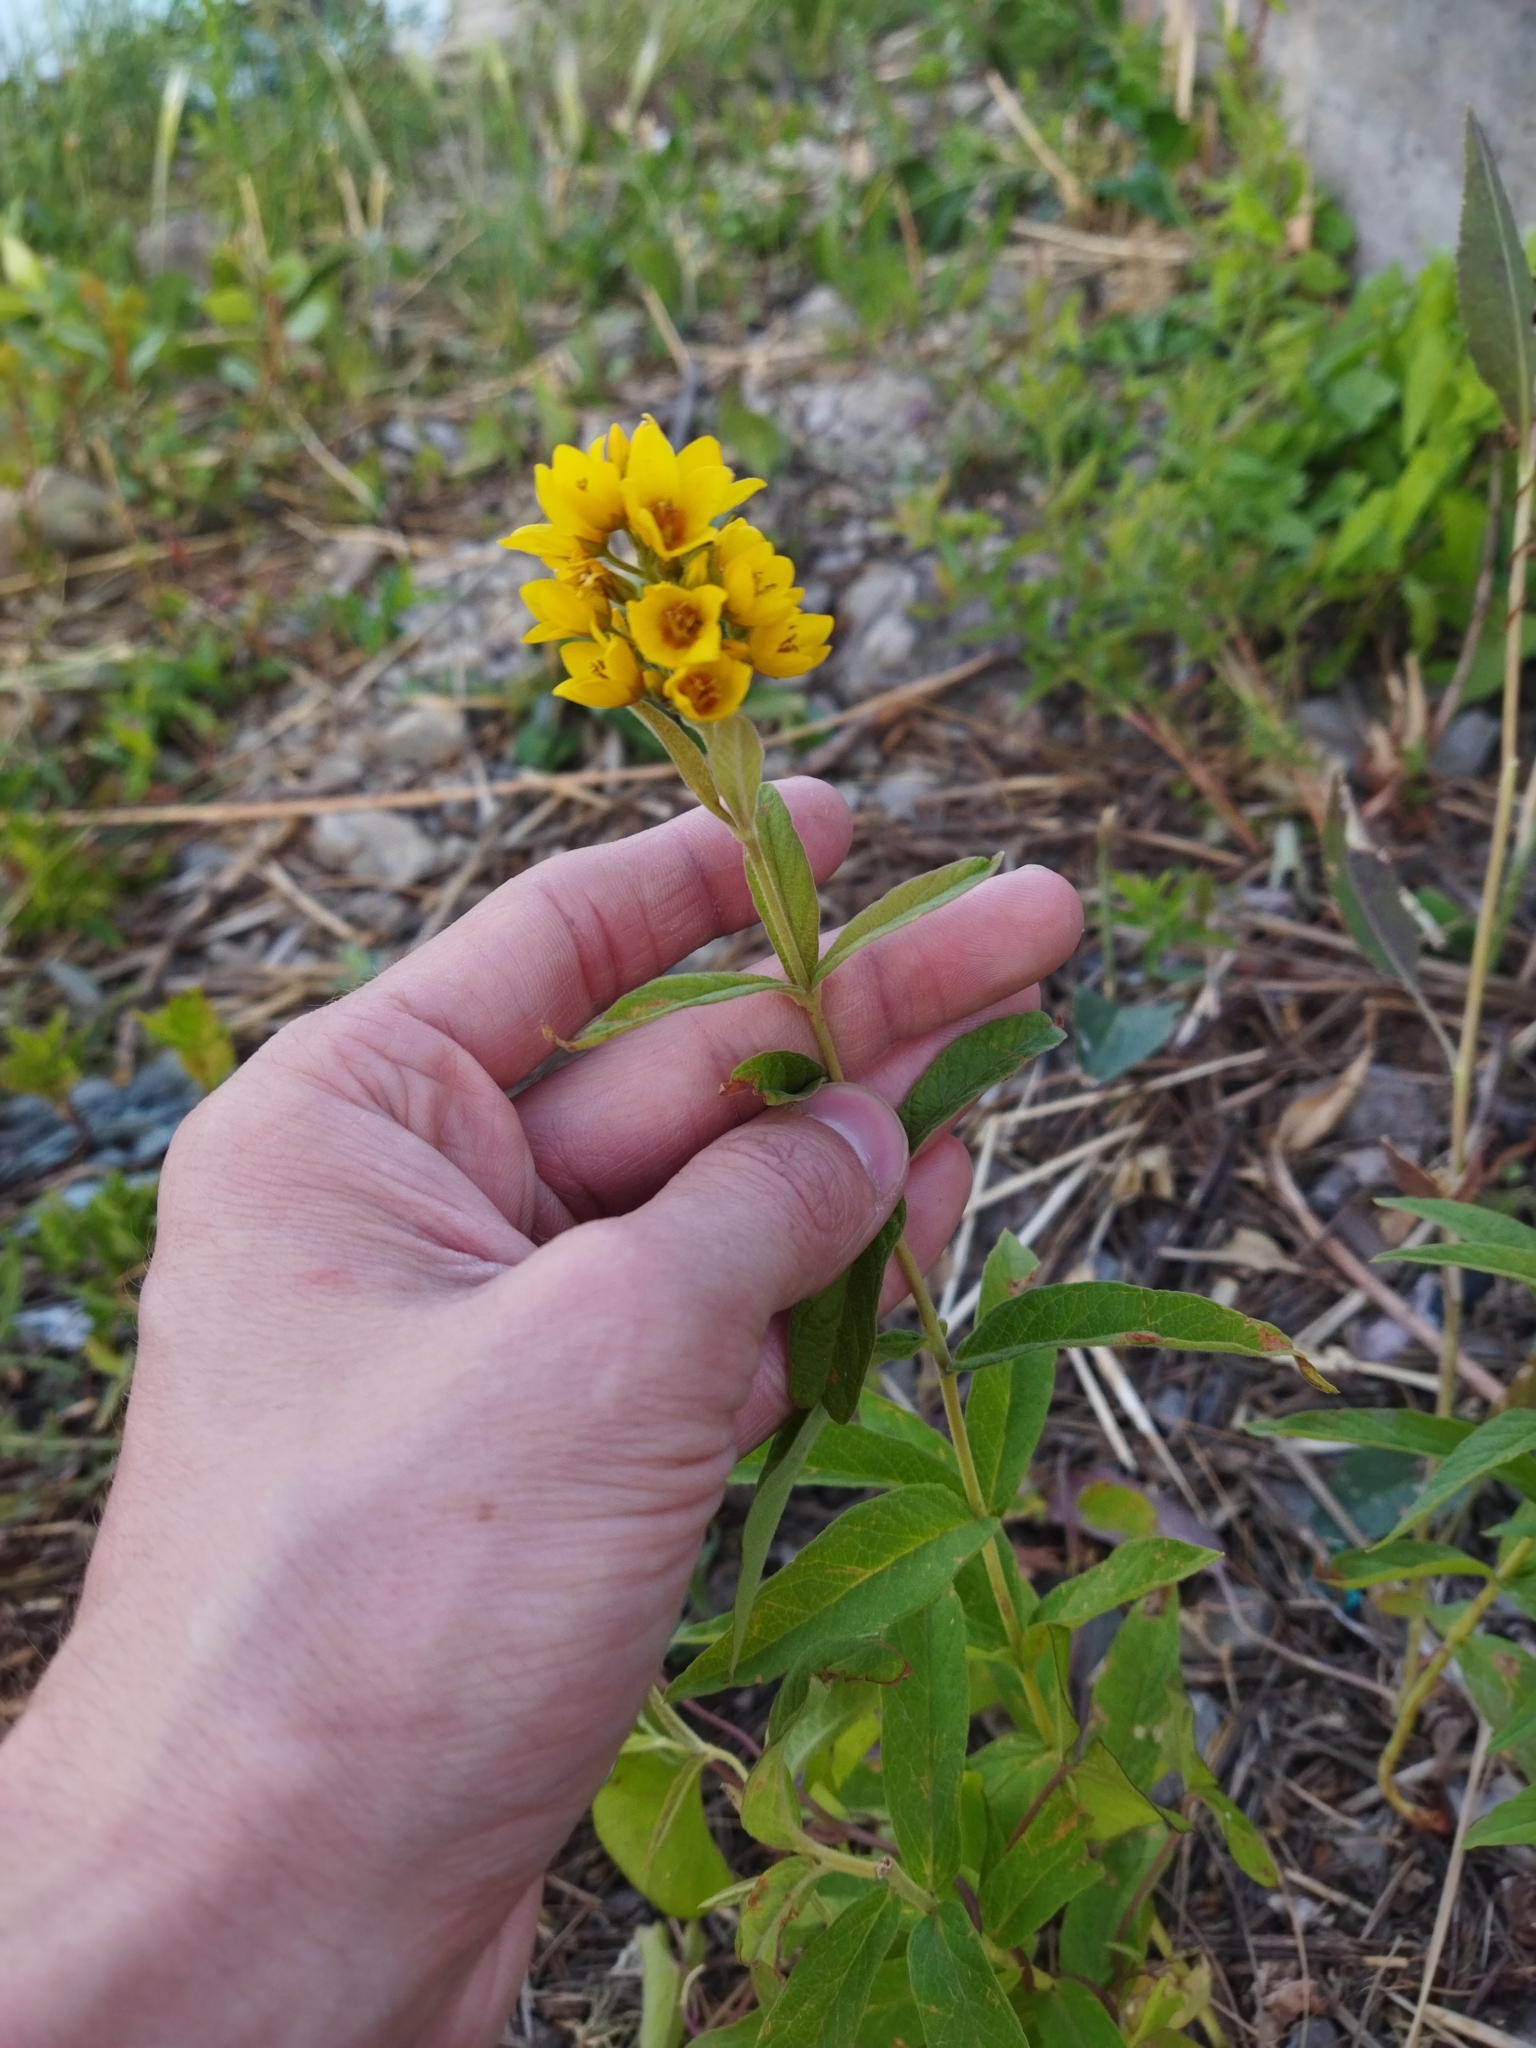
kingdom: Plantae
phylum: Tracheophyta
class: Magnoliopsida
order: Ericales
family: Primulaceae
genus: Lysimachia
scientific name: Lysimachia vulgaris
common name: Yellow loosestrife
